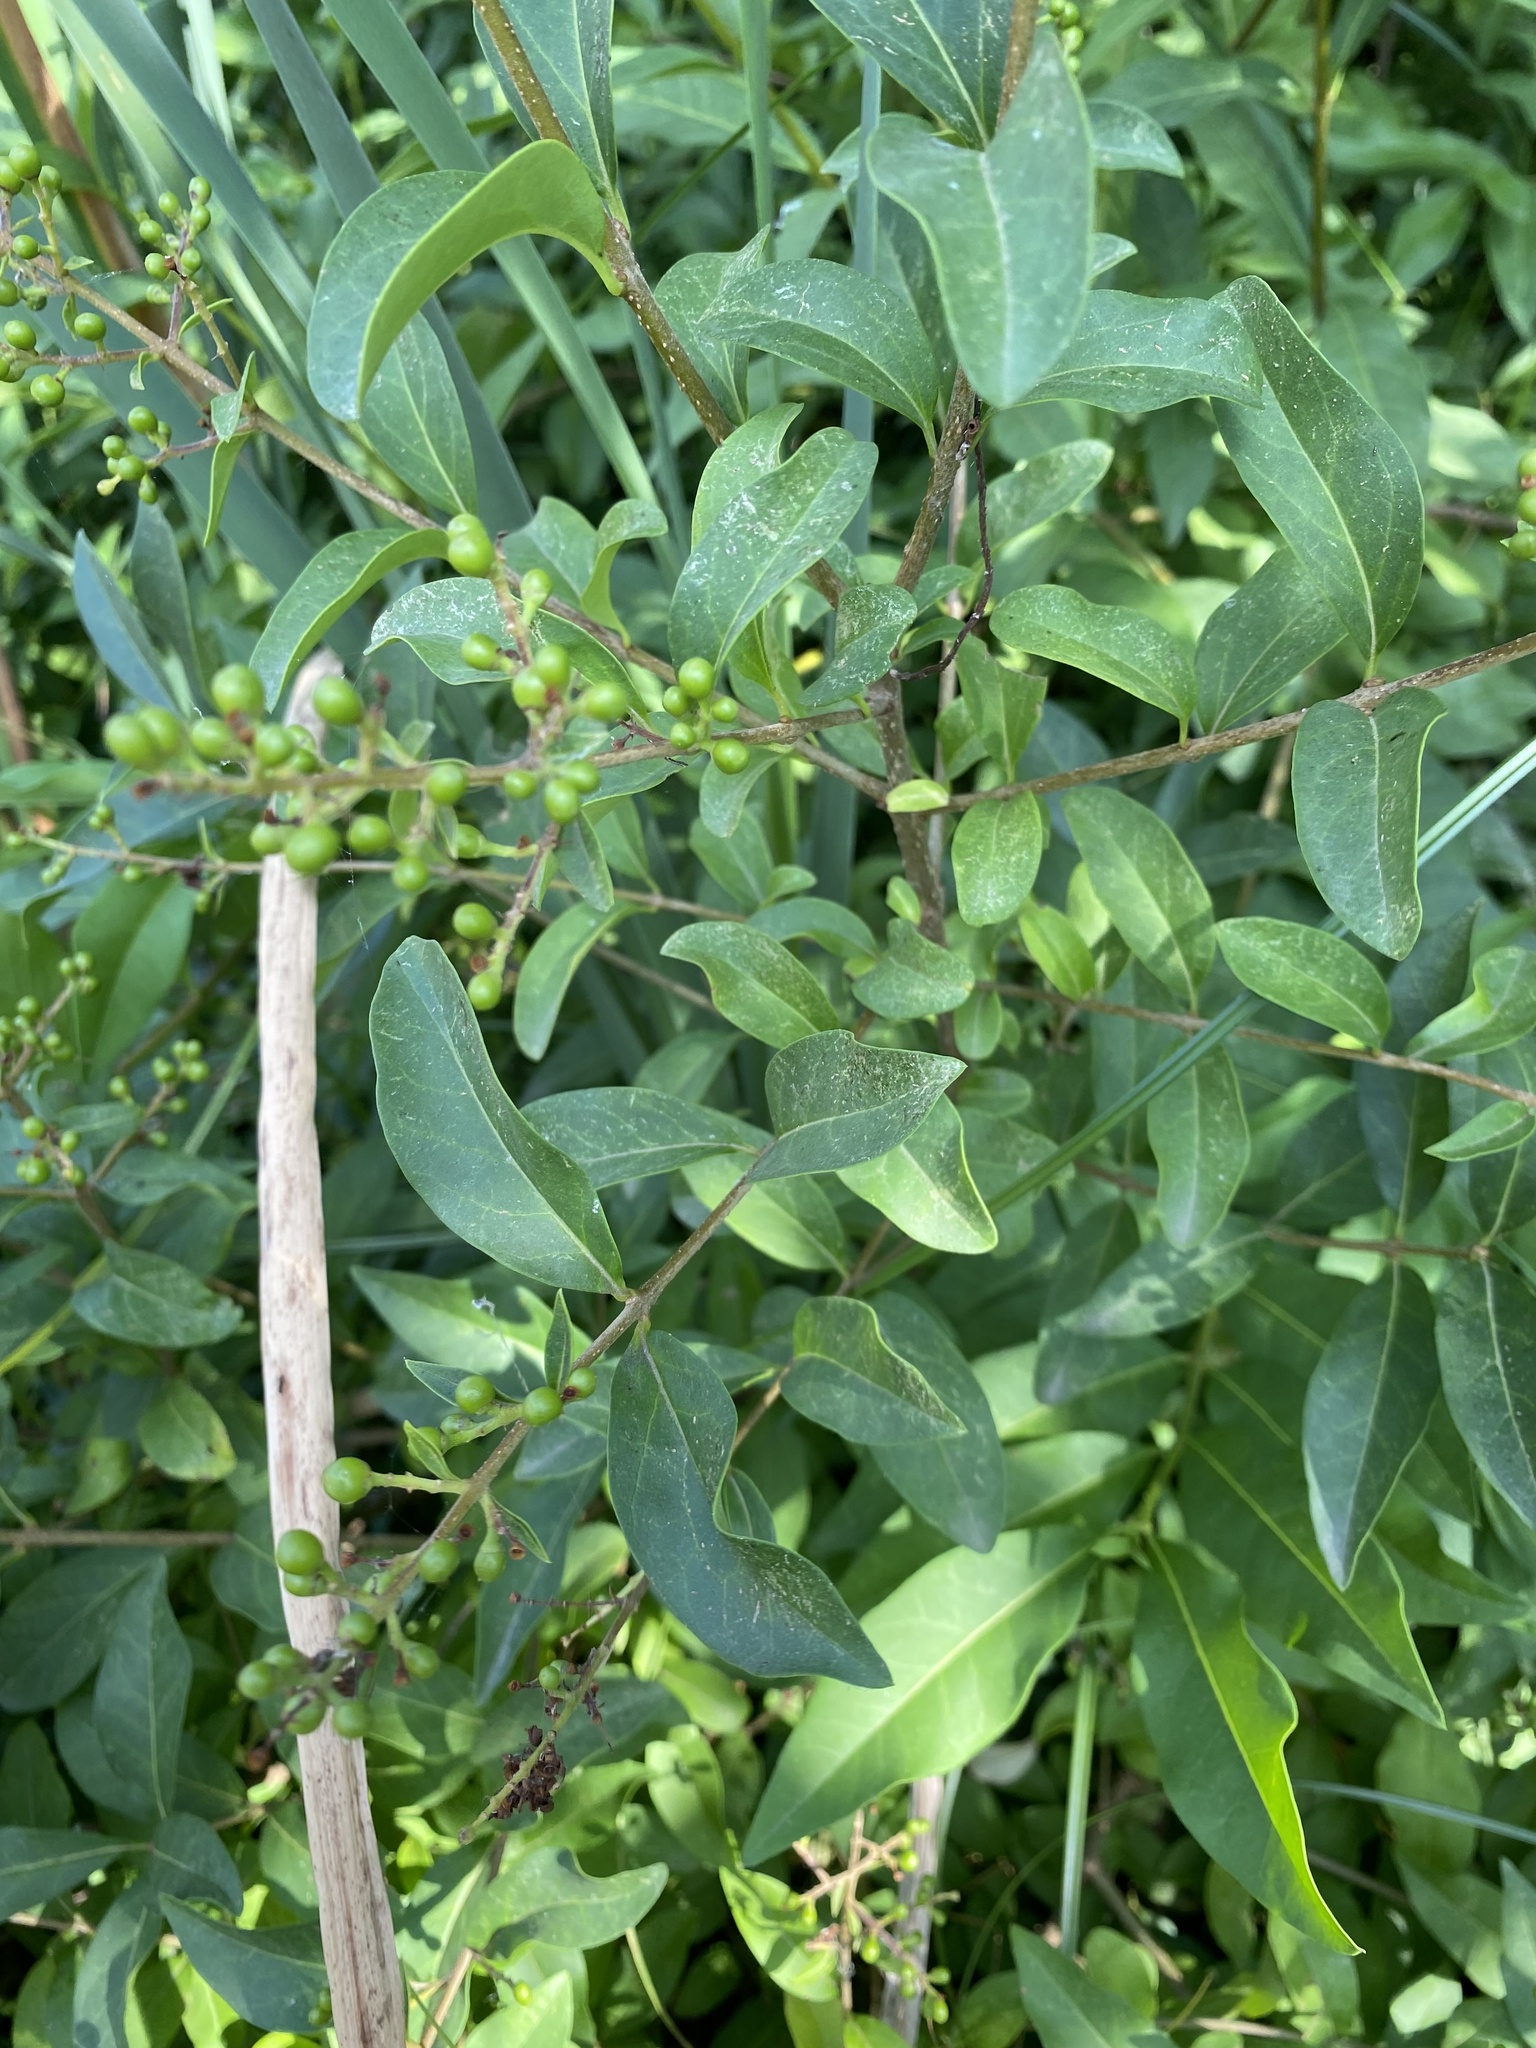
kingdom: Plantae
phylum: Tracheophyta
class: Magnoliopsida
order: Lamiales
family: Oleaceae
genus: Ligustrum
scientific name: Ligustrum vulgare
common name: Wild privet
